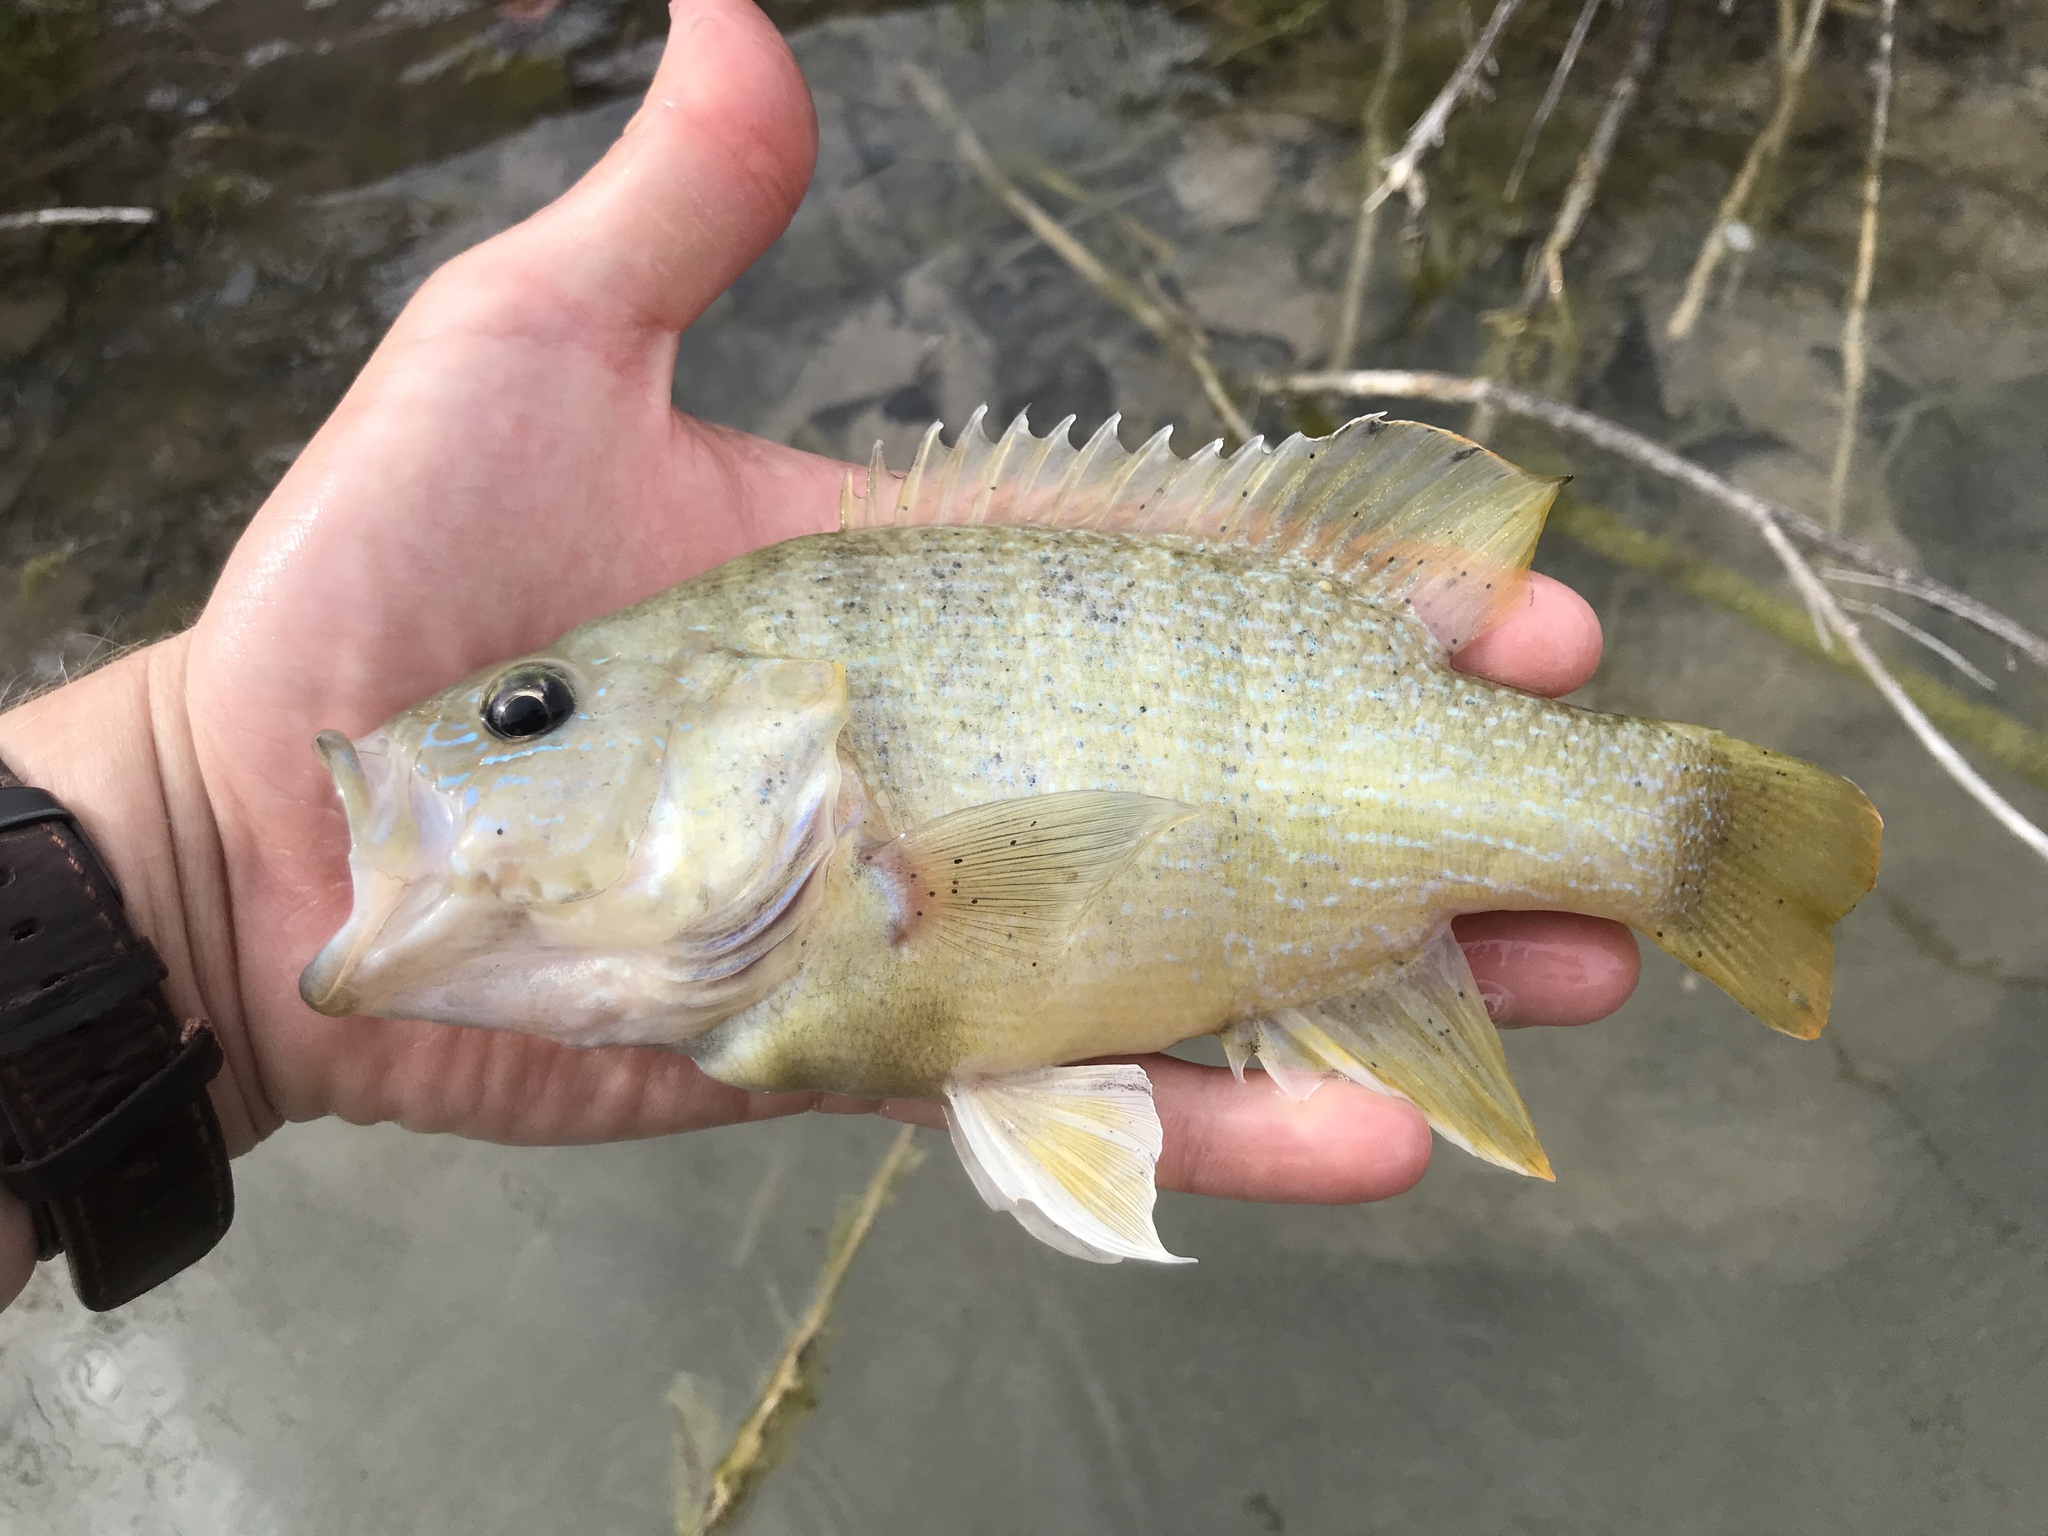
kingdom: Animalia
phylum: Chordata
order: Perciformes
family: Centrarchidae
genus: Lepomis
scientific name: Lepomis cyanellus
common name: Green sunfish
